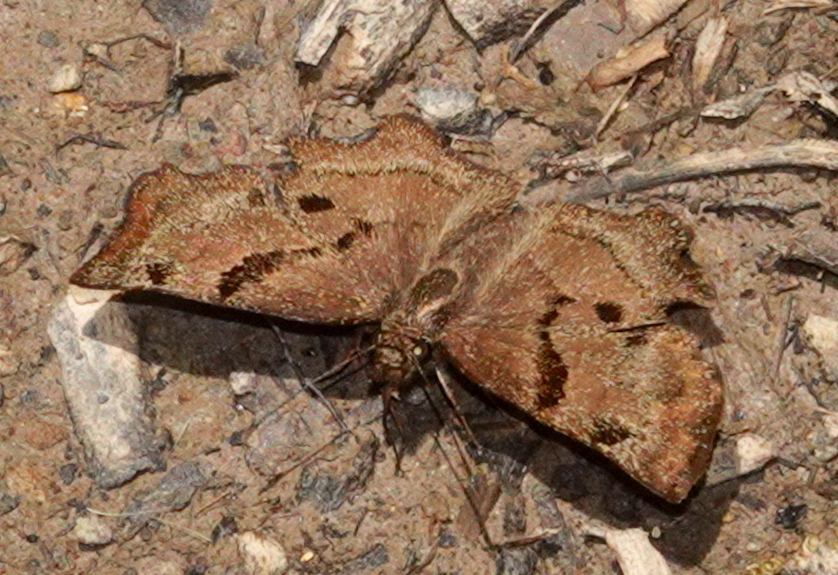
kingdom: Animalia
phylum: Arthropoda
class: Insecta
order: Lepidoptera
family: Hesperiidae
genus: Systaspes
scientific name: Systaspes
